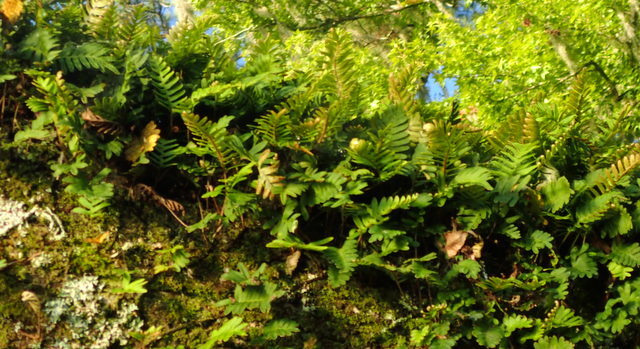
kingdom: Plantae
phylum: Tracheophyta
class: Polypodiopsida
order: Polypodiales
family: Polypodiaceae
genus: Pleopeltis
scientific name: Pleopeltis michauxiana
